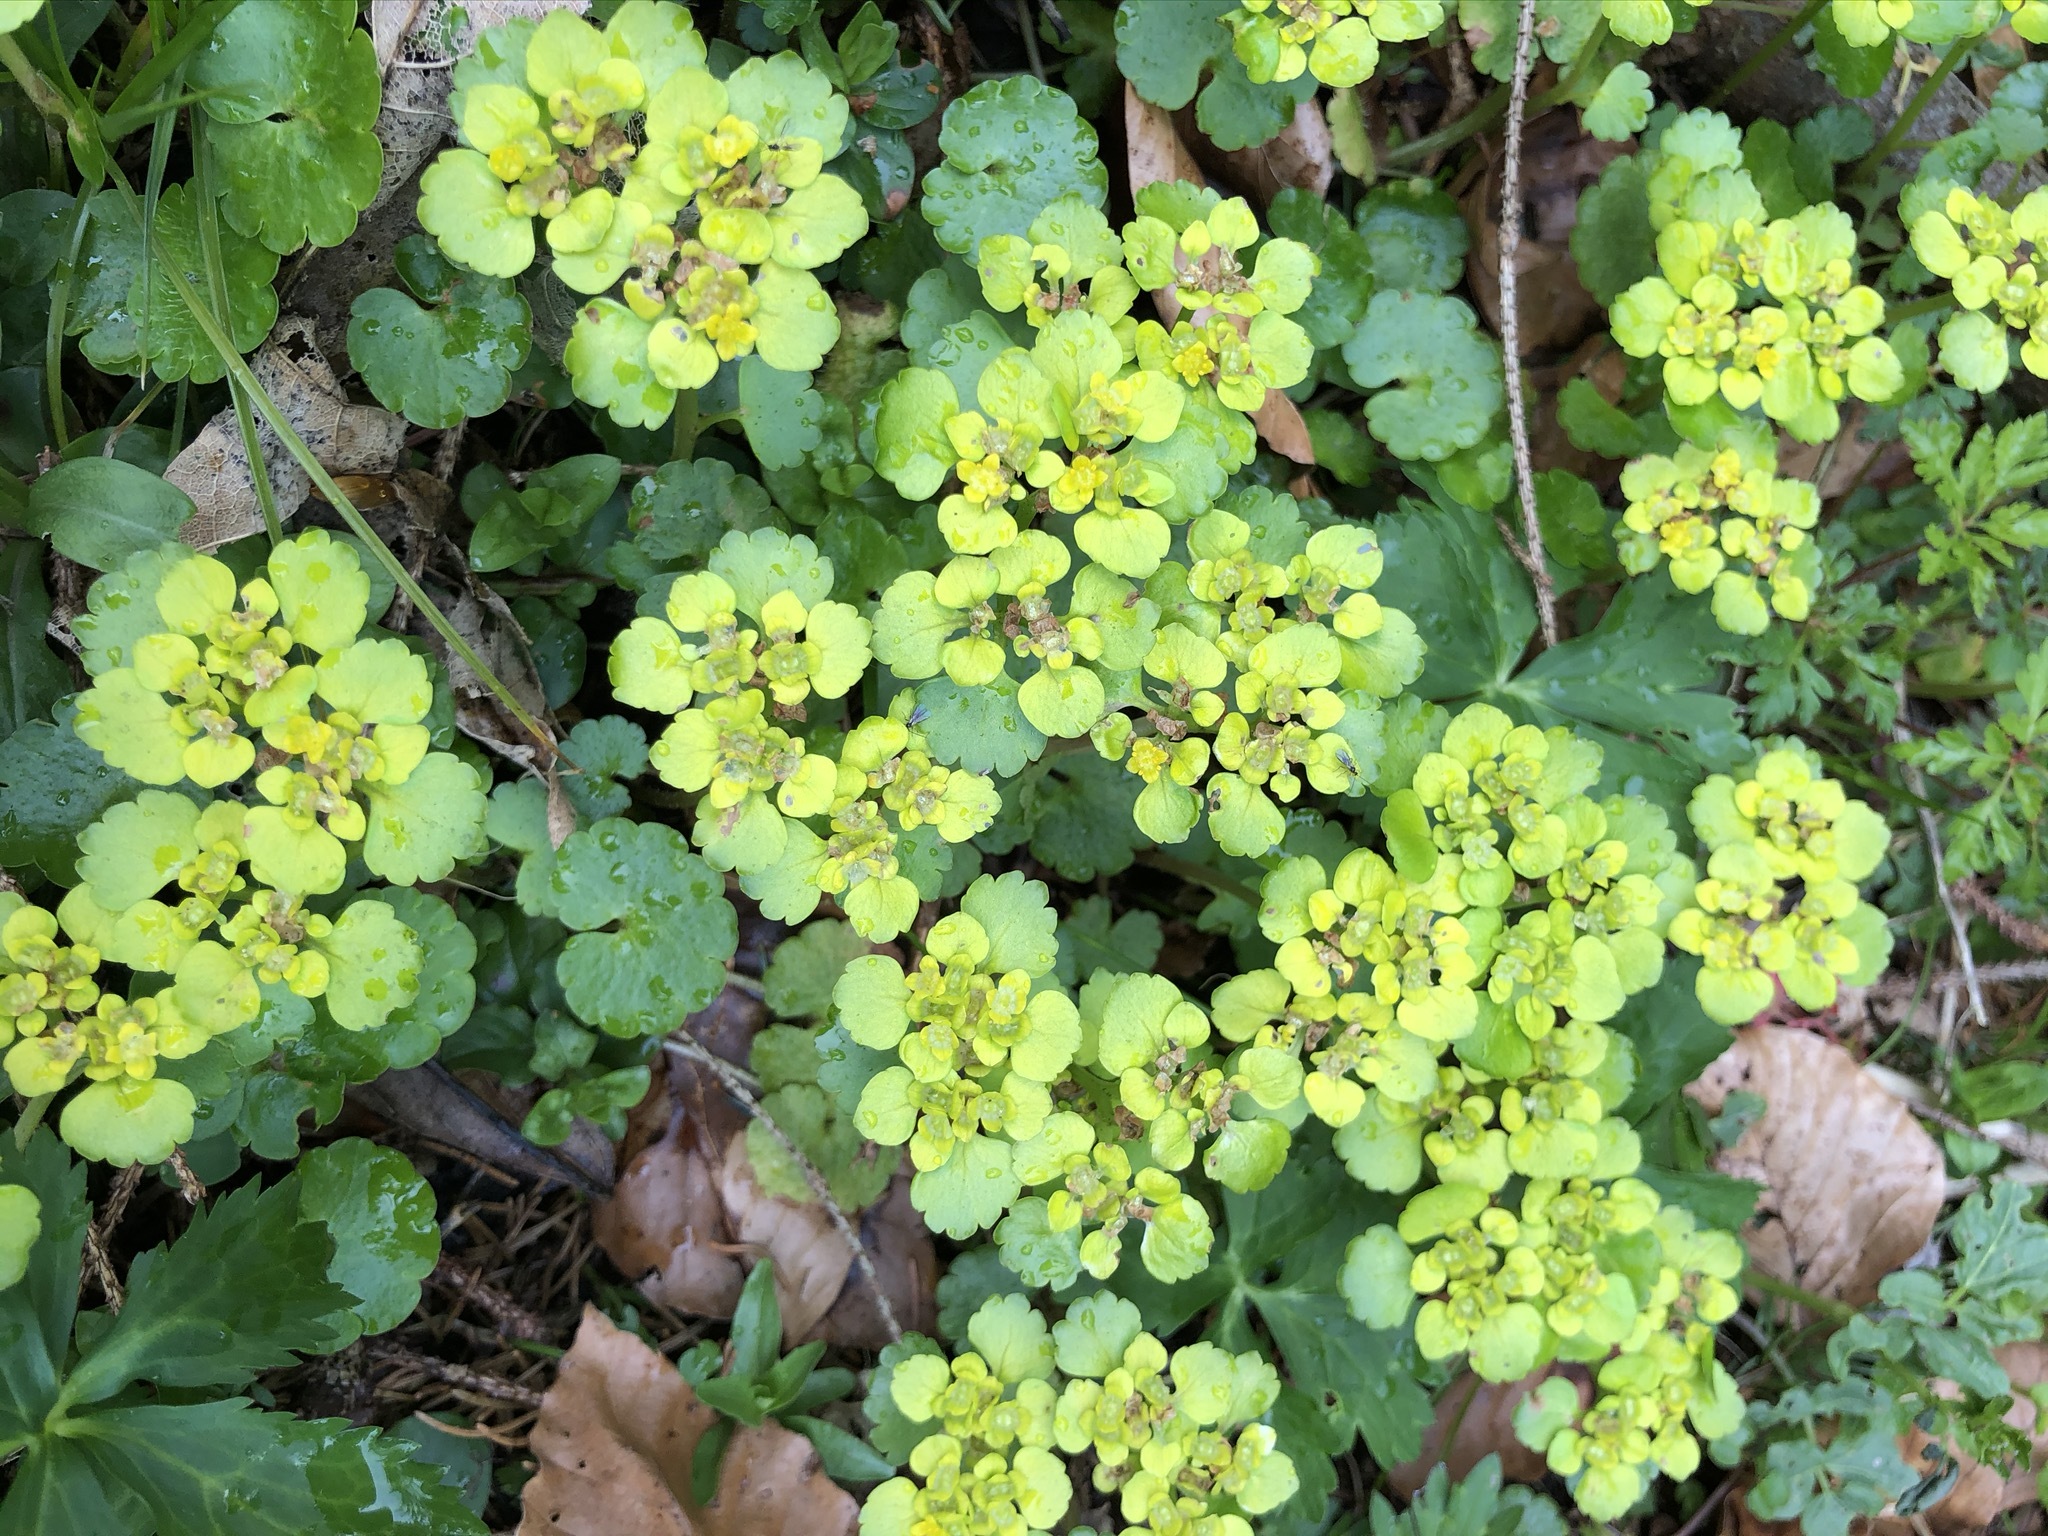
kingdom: Plantae
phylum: Tracheophyta
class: Magnoliopsida
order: Saxifragales
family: Saxifragaceae
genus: Chrysosplenium
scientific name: Chrysosplenium alternifolium
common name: Alternate-leaved golden-saxifrage
